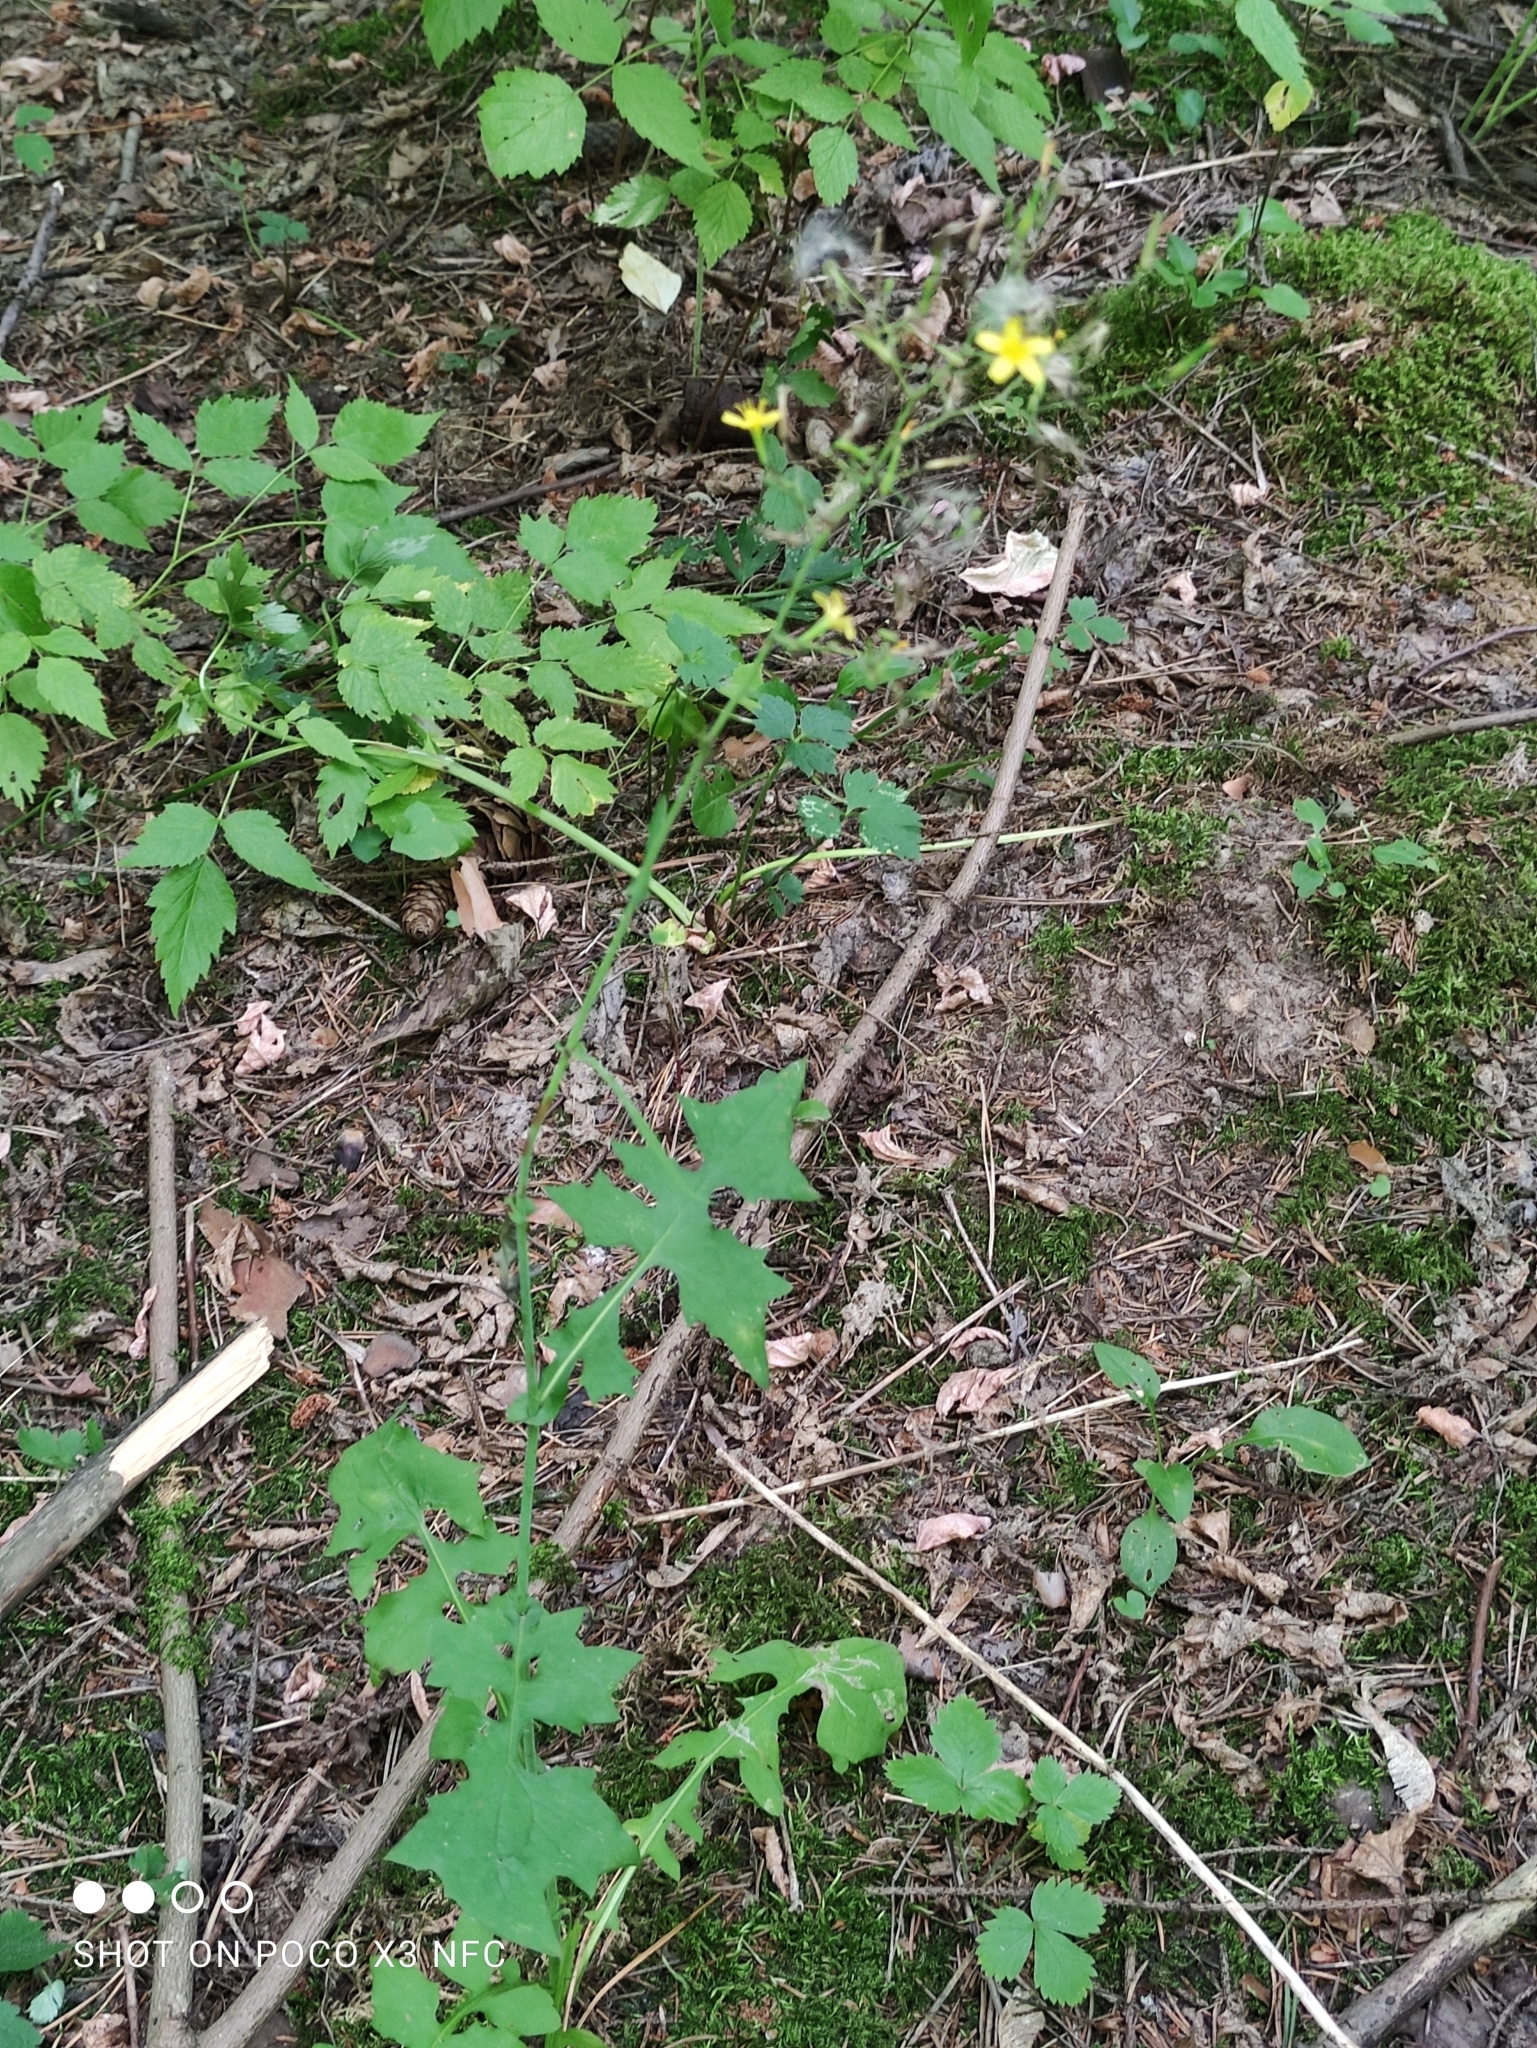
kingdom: Plantae
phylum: Tracheophyta
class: Magnoliopsida
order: Asterales
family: Asteraceae
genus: Mycelis
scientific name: Mycelis muralis
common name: Wall lettuce
